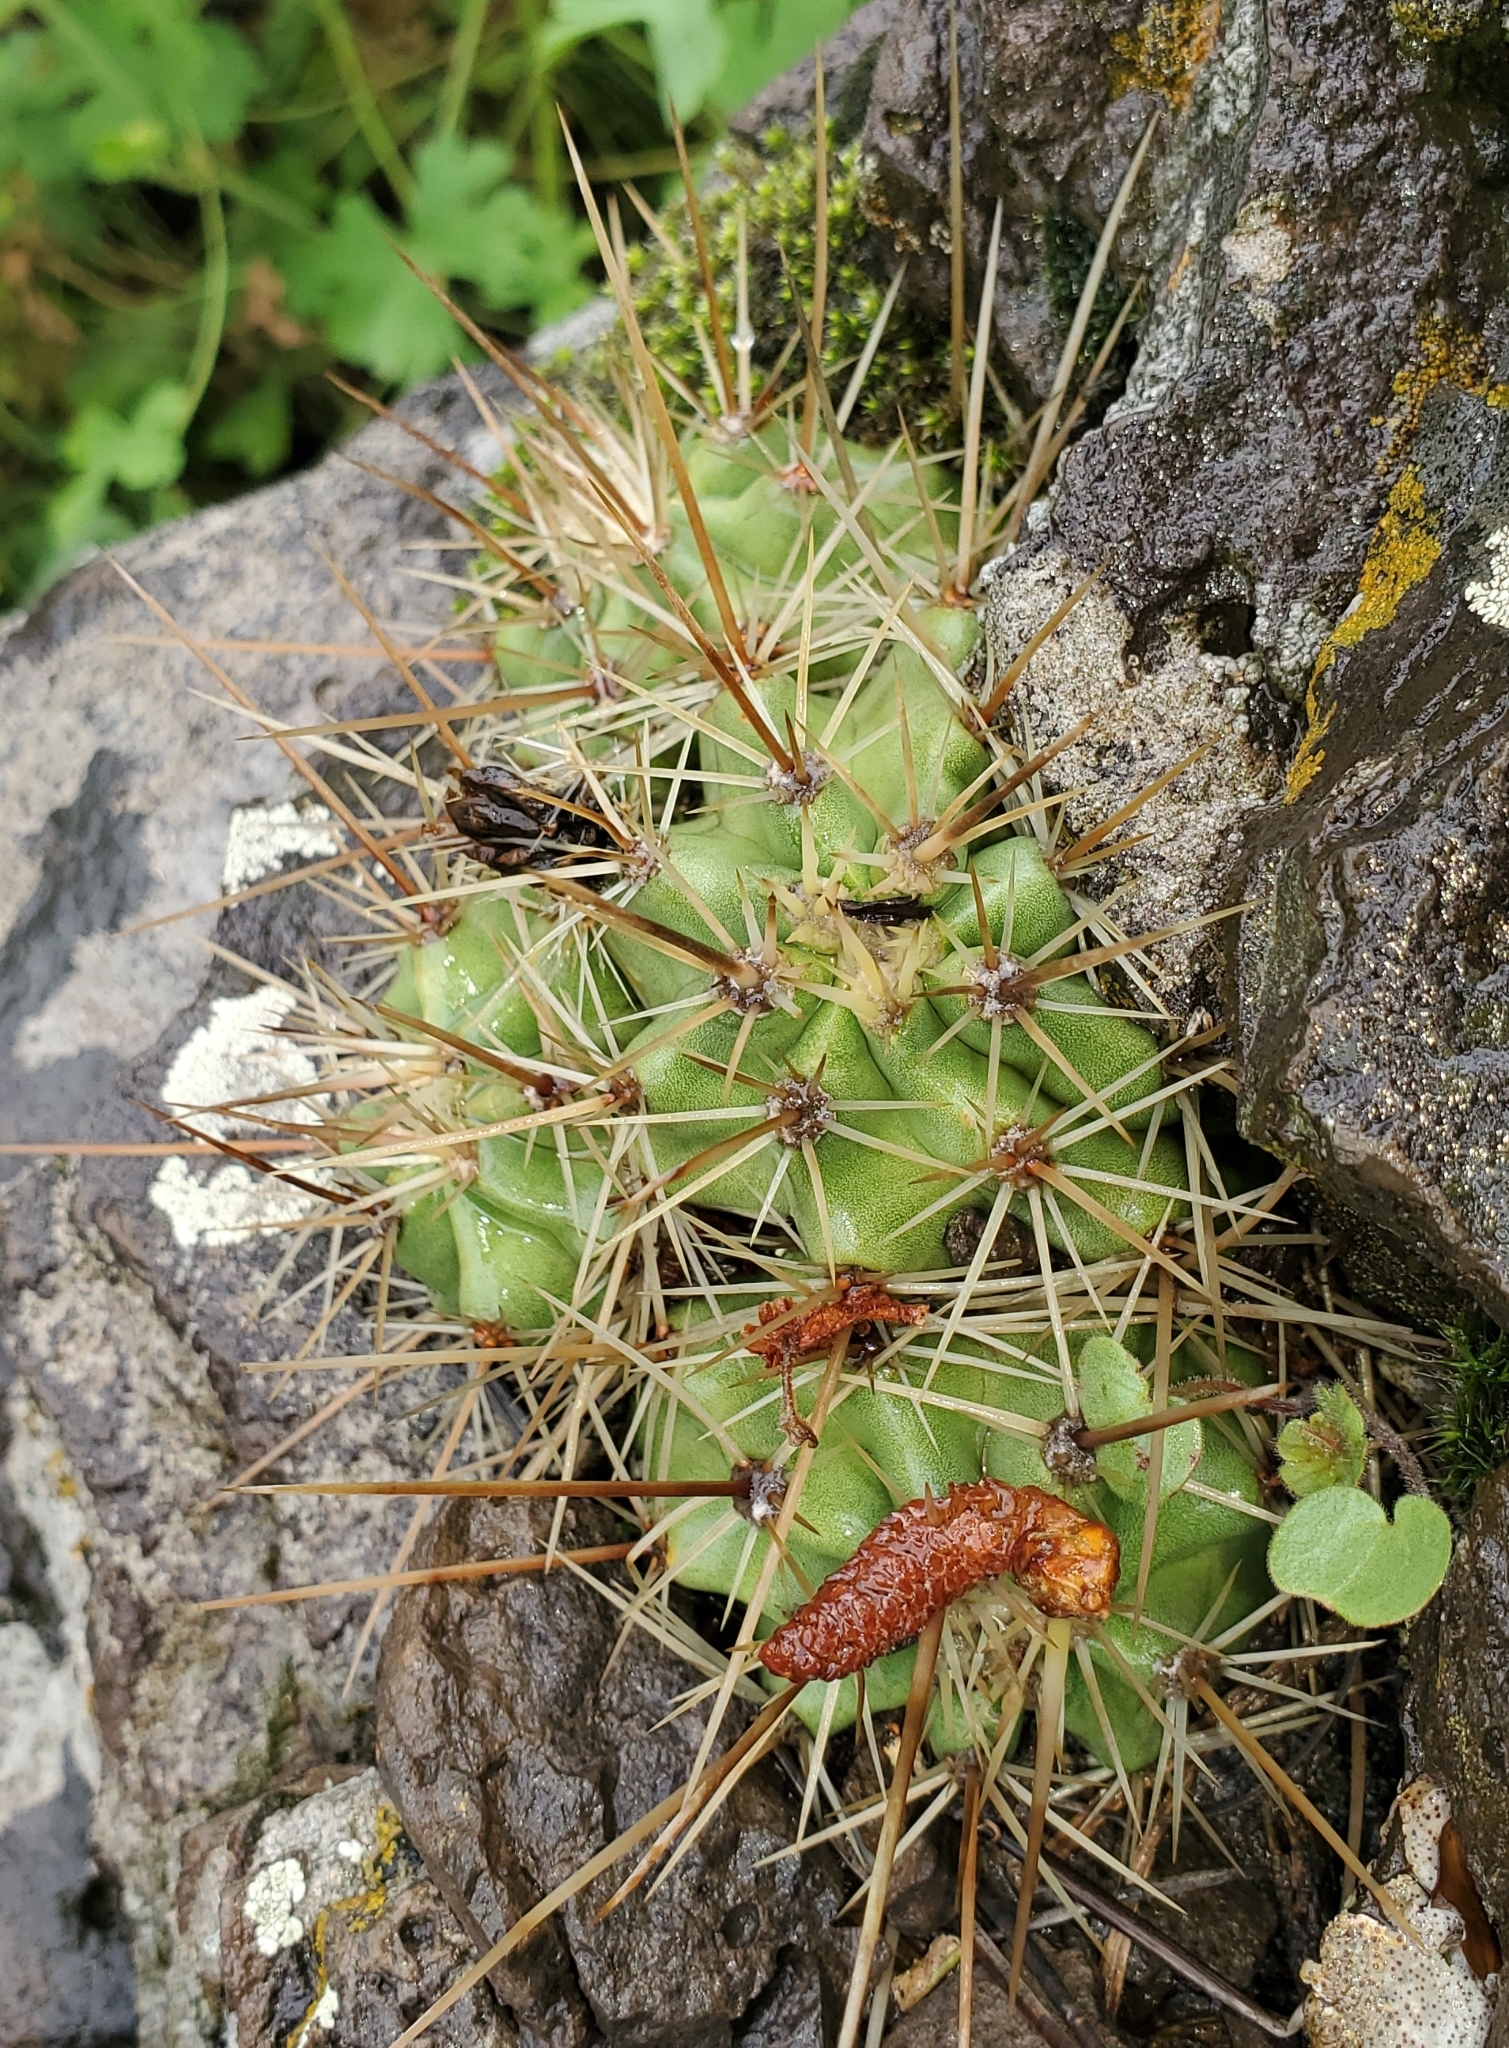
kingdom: Plantae
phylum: Tracheophyta
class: Magnoliopsida
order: Caryophyllales
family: Cactaceae
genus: Echinocereus
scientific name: Echinocereus bakeri
